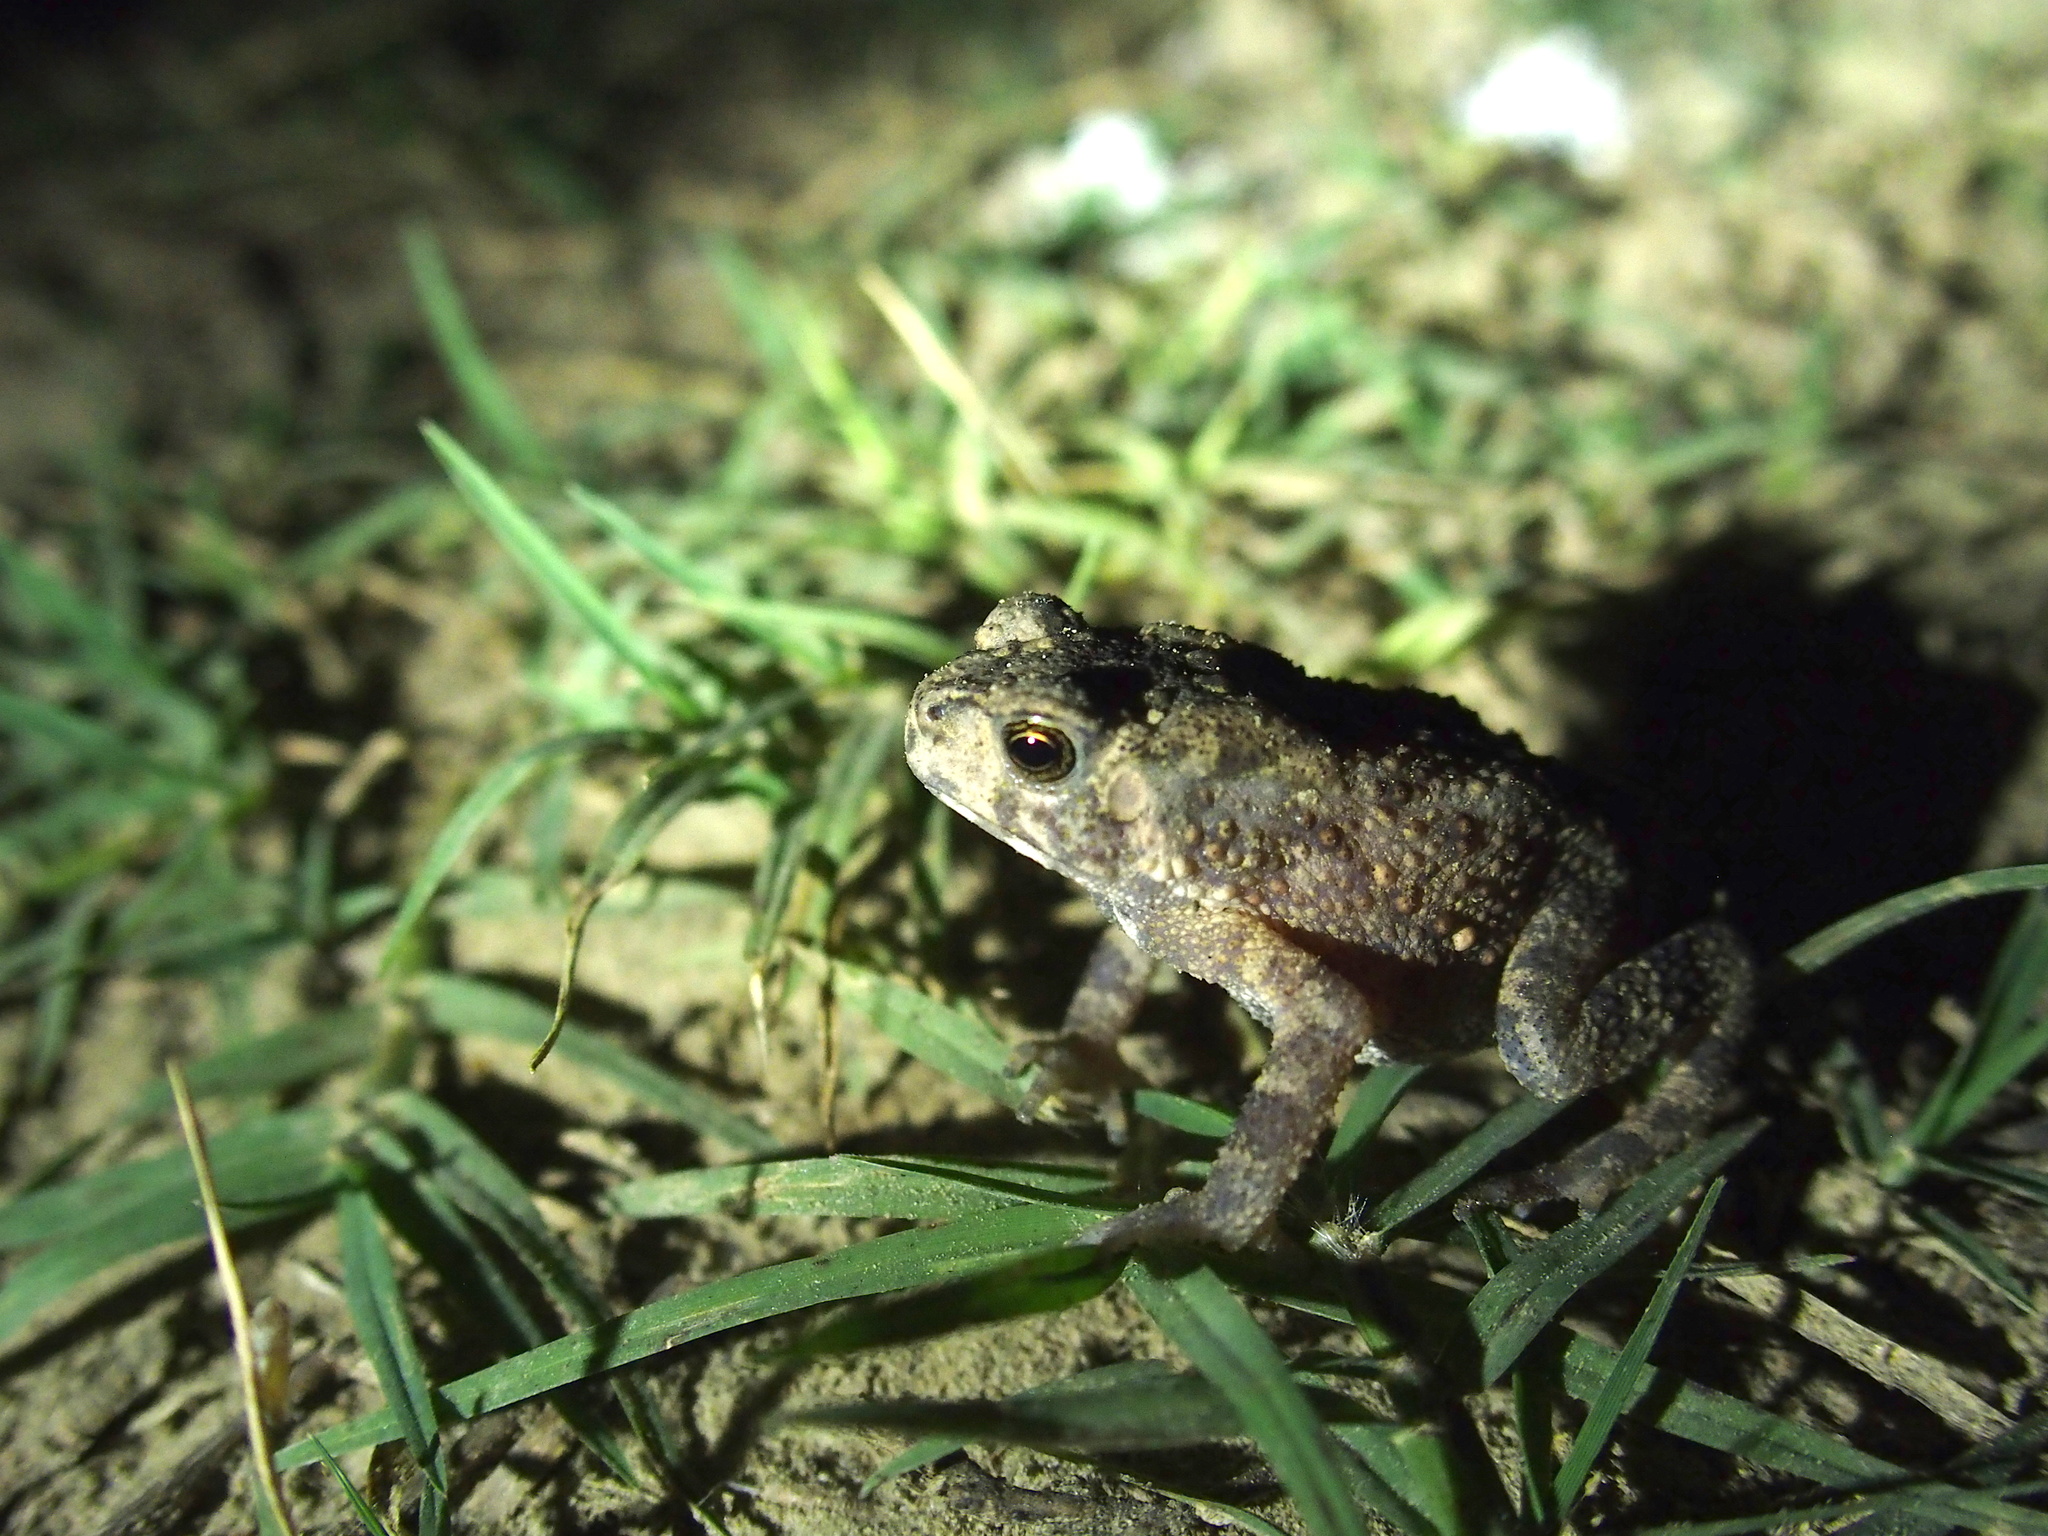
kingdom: Animalia
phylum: Chordata
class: Amphibia
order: Anura
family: Bufonidae
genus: Duttaphrynus
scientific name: Duttaphrynus melanostictus
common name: Common sunda toad
